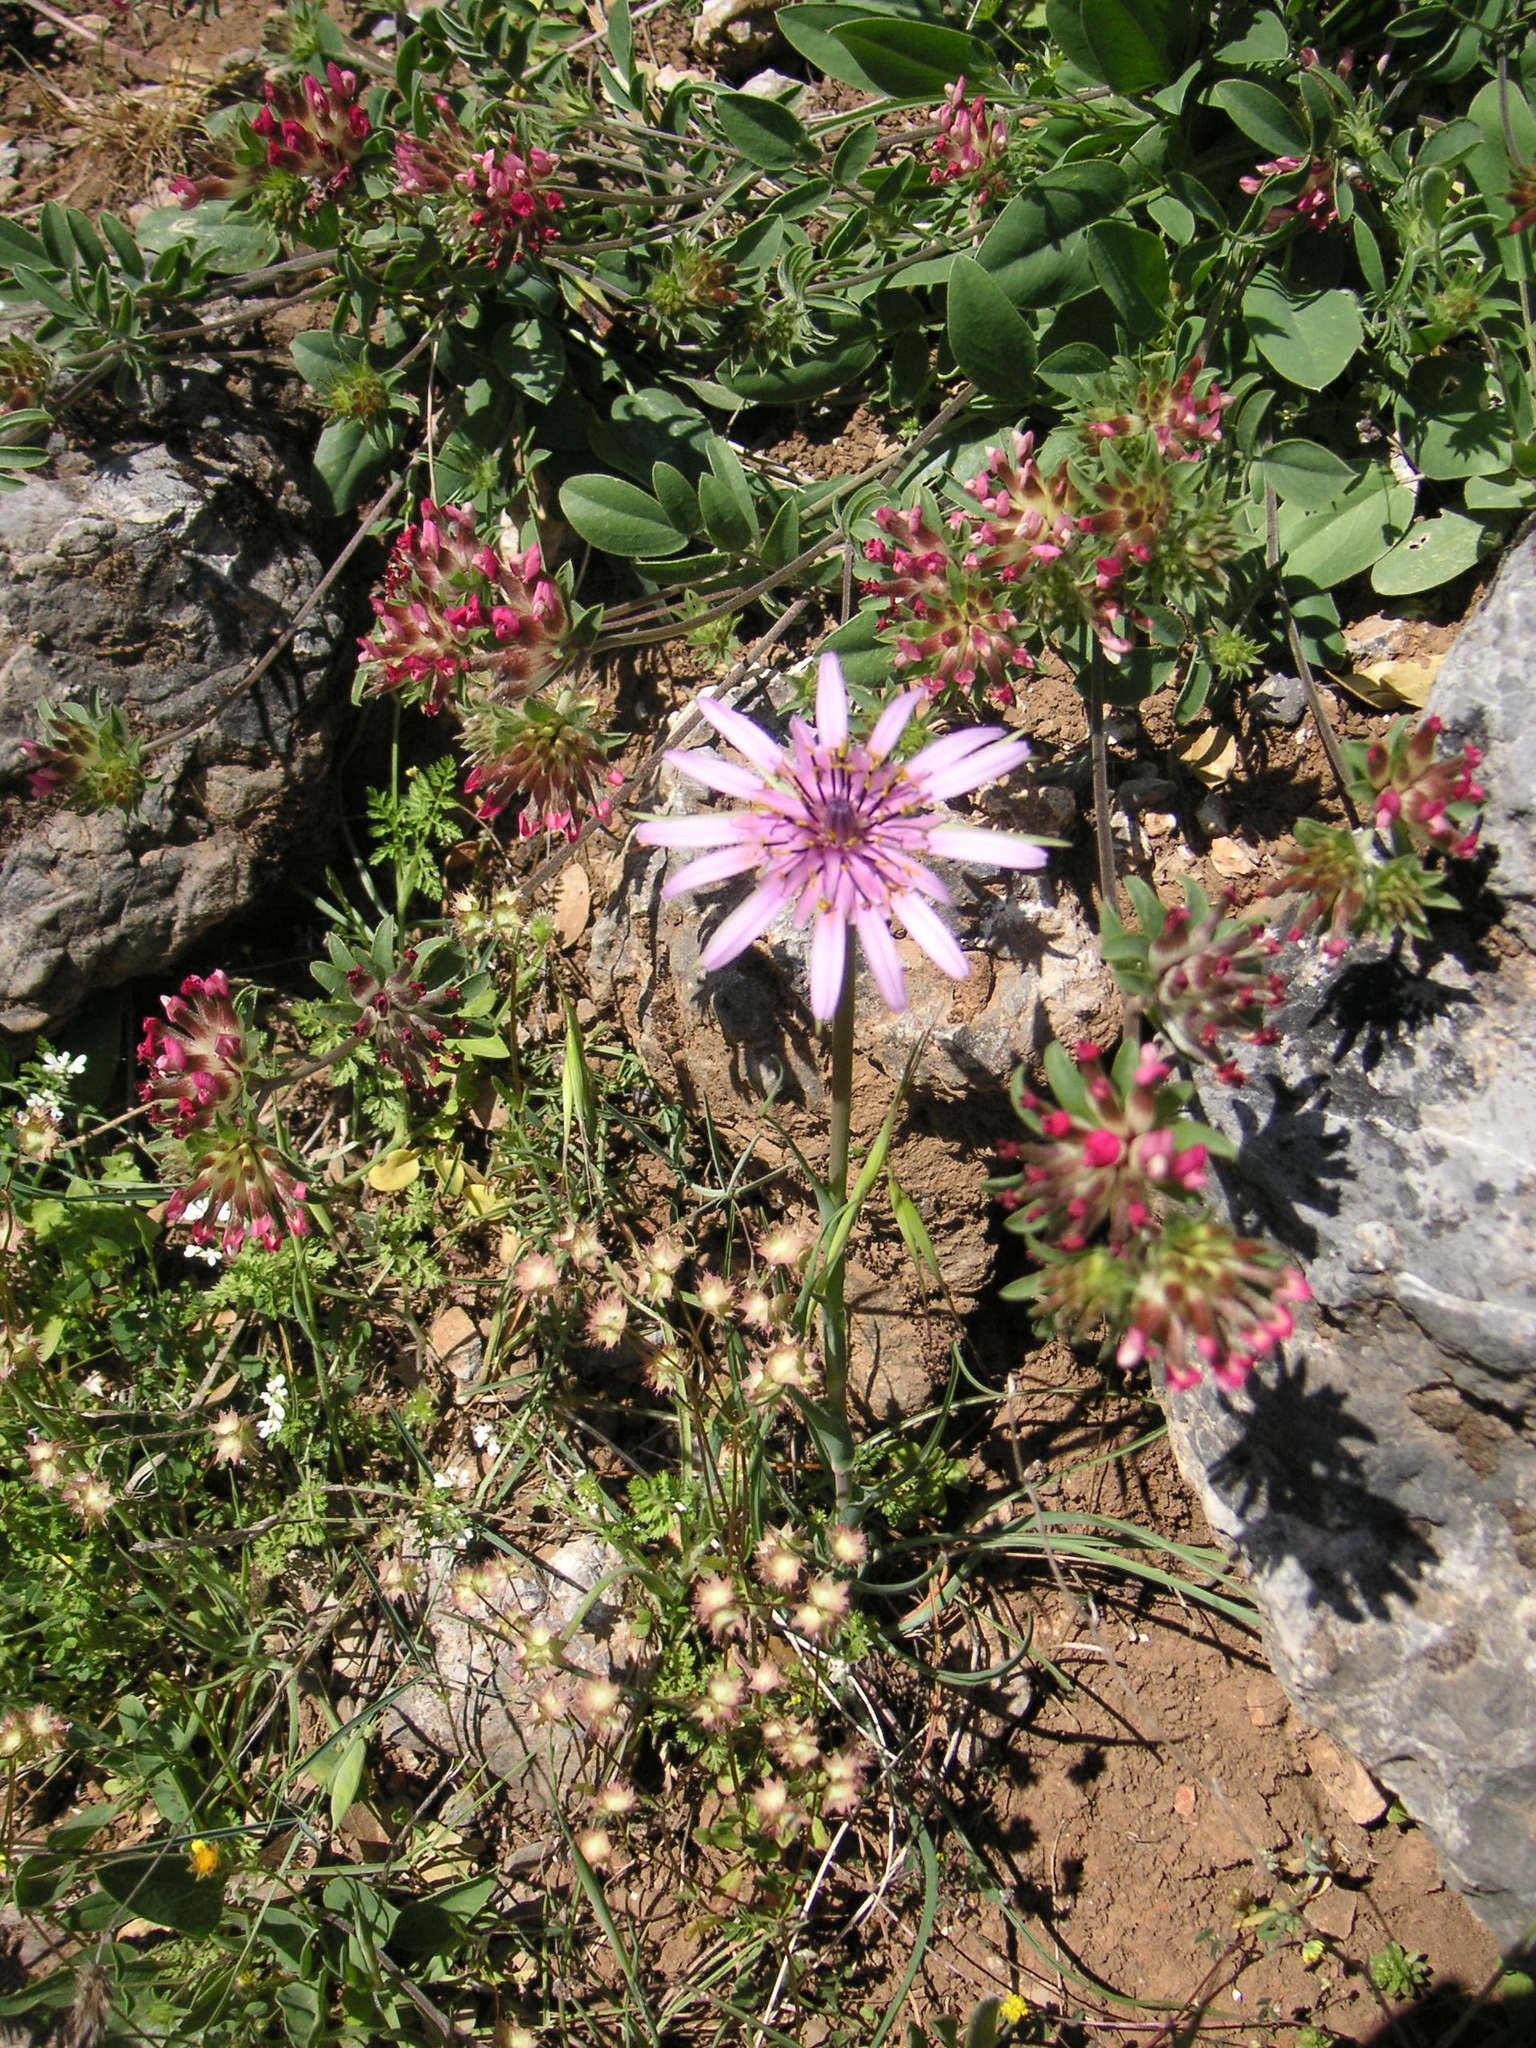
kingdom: Plantae
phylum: Tracheophyta
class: Magnoliopsida
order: Asterales
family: Asteraceae
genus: Tragopogon
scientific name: Tragopogon porrifolius
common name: Salsify
